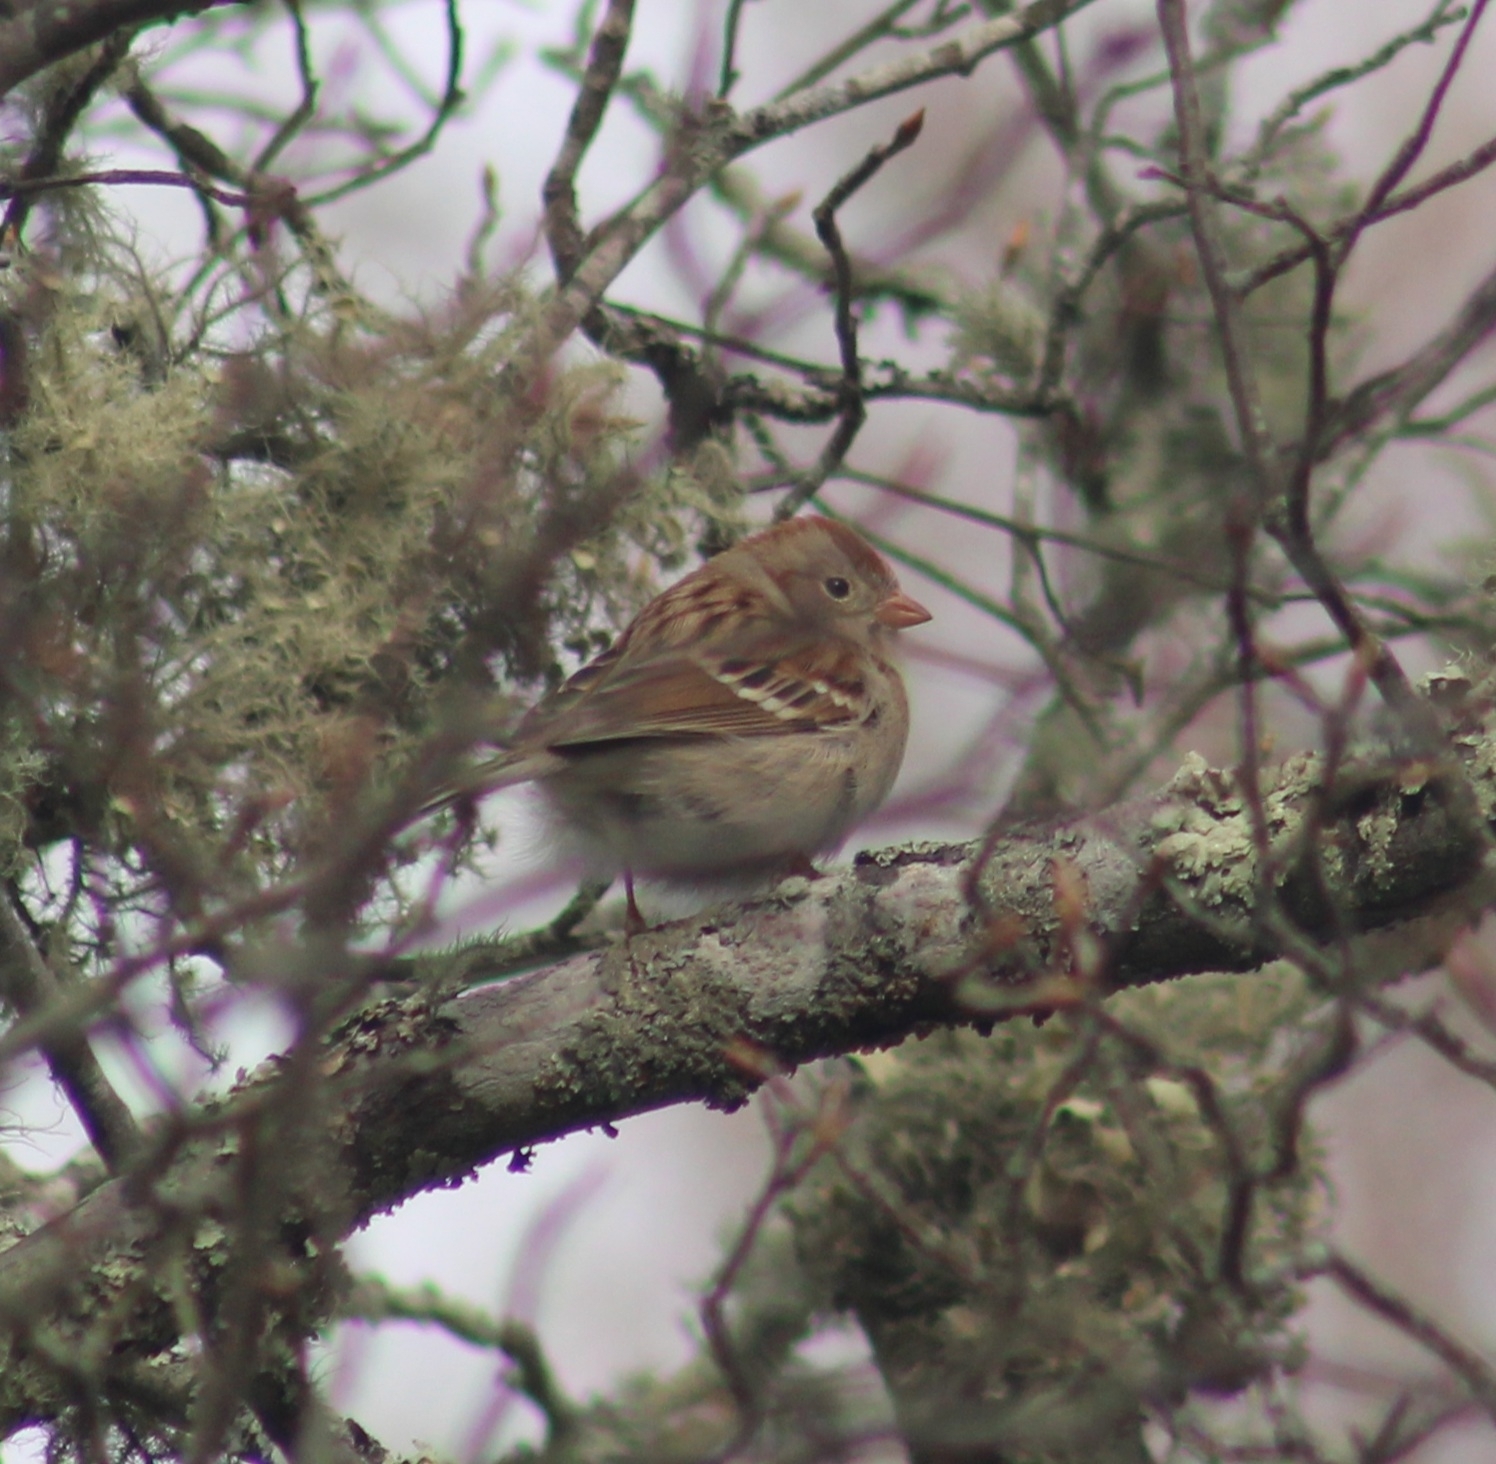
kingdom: Animalia
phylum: Chordata
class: Aves
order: Passeriformes
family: Passerellidae
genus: Spizella
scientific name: Spizella pusilla
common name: Field sparrow
